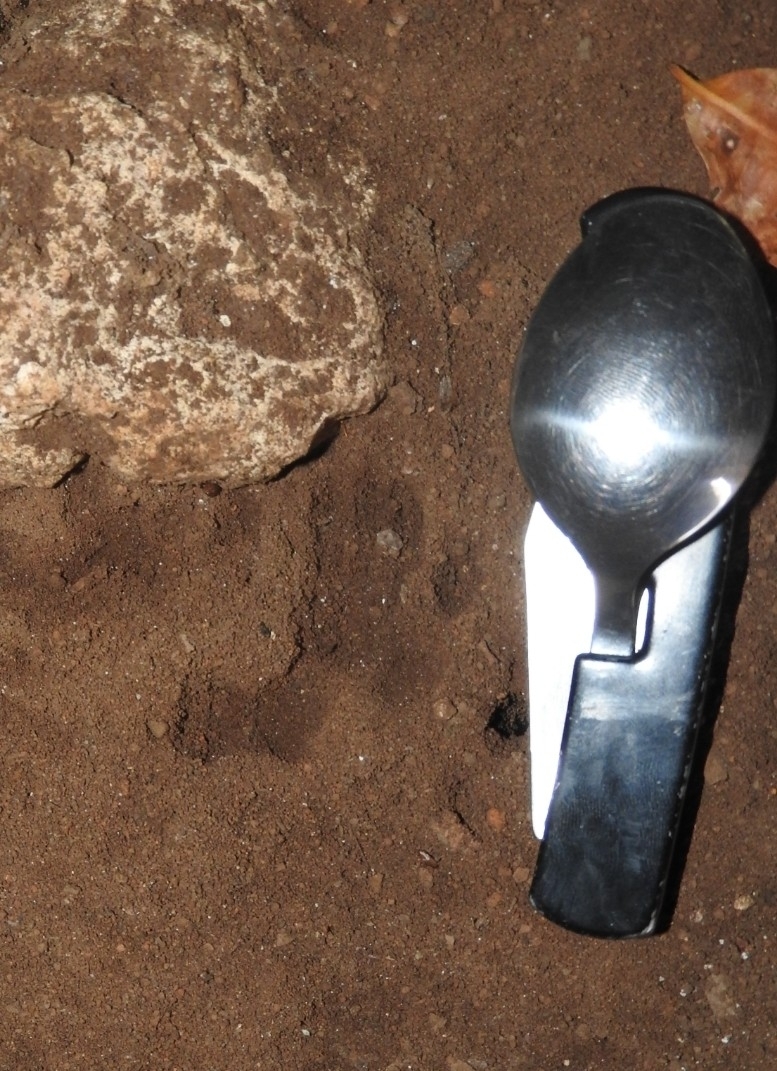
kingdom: Animalia
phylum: Chordata
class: Mammalia
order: Didelphimorphia
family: Didelphidae
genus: Didelphis
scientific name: Didelphis
